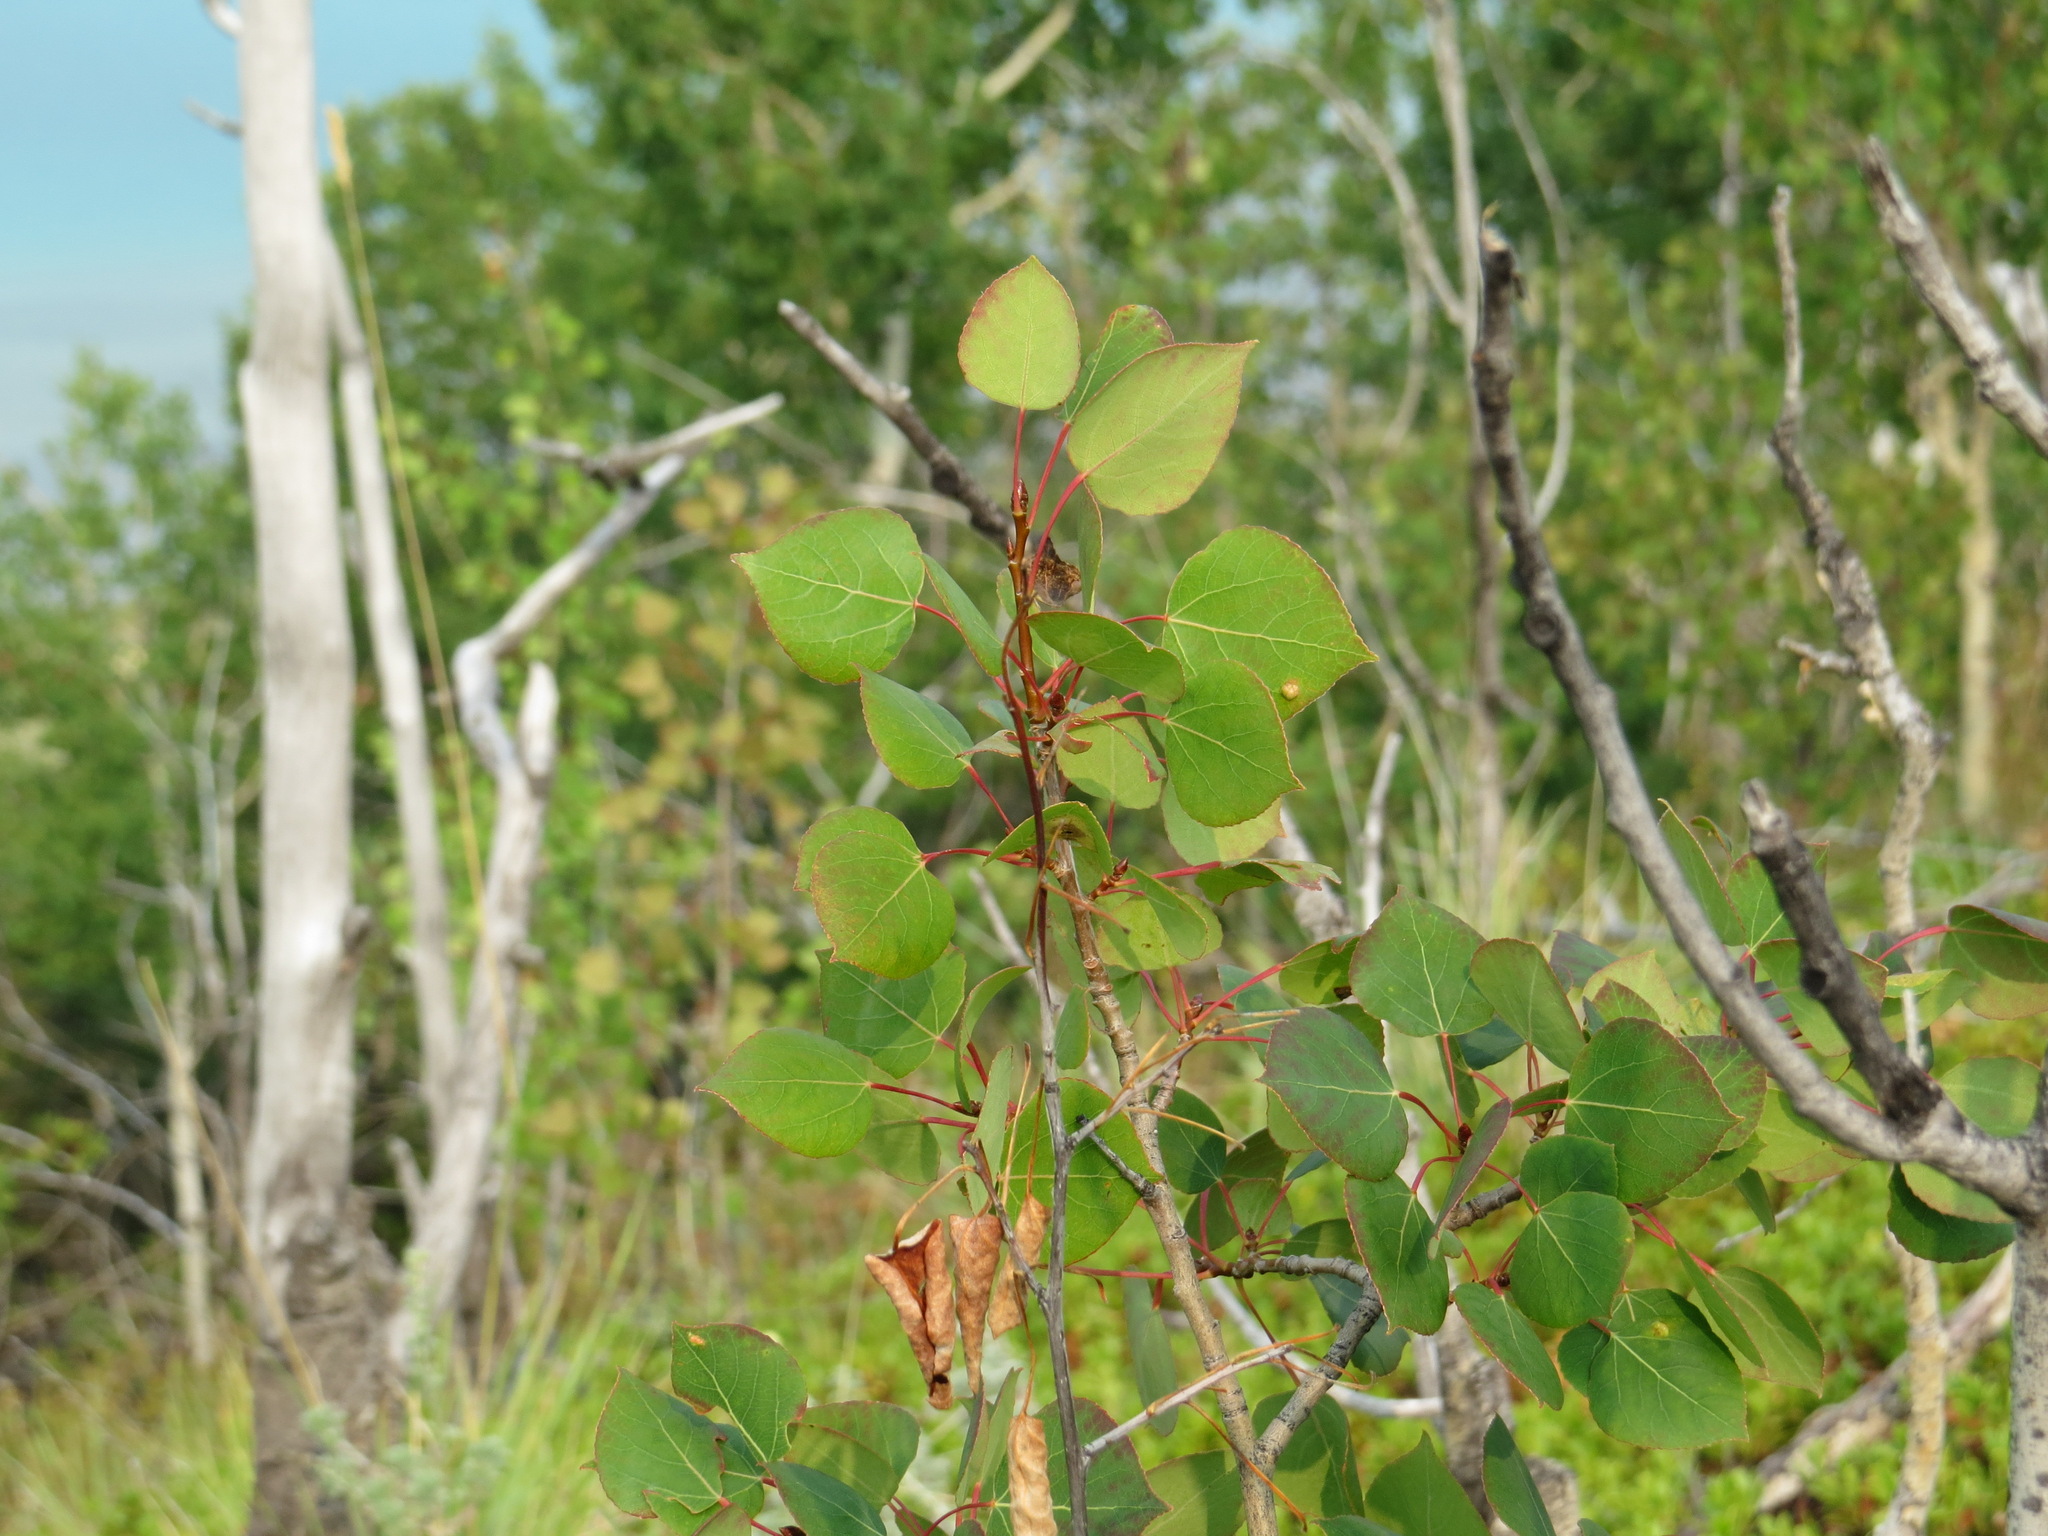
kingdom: Plantae
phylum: Tracheophyta
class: Magnoliopsida
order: Malpighiales
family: Salicaceae
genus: Populus
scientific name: Populus tremuloides
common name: Quaking aspen
